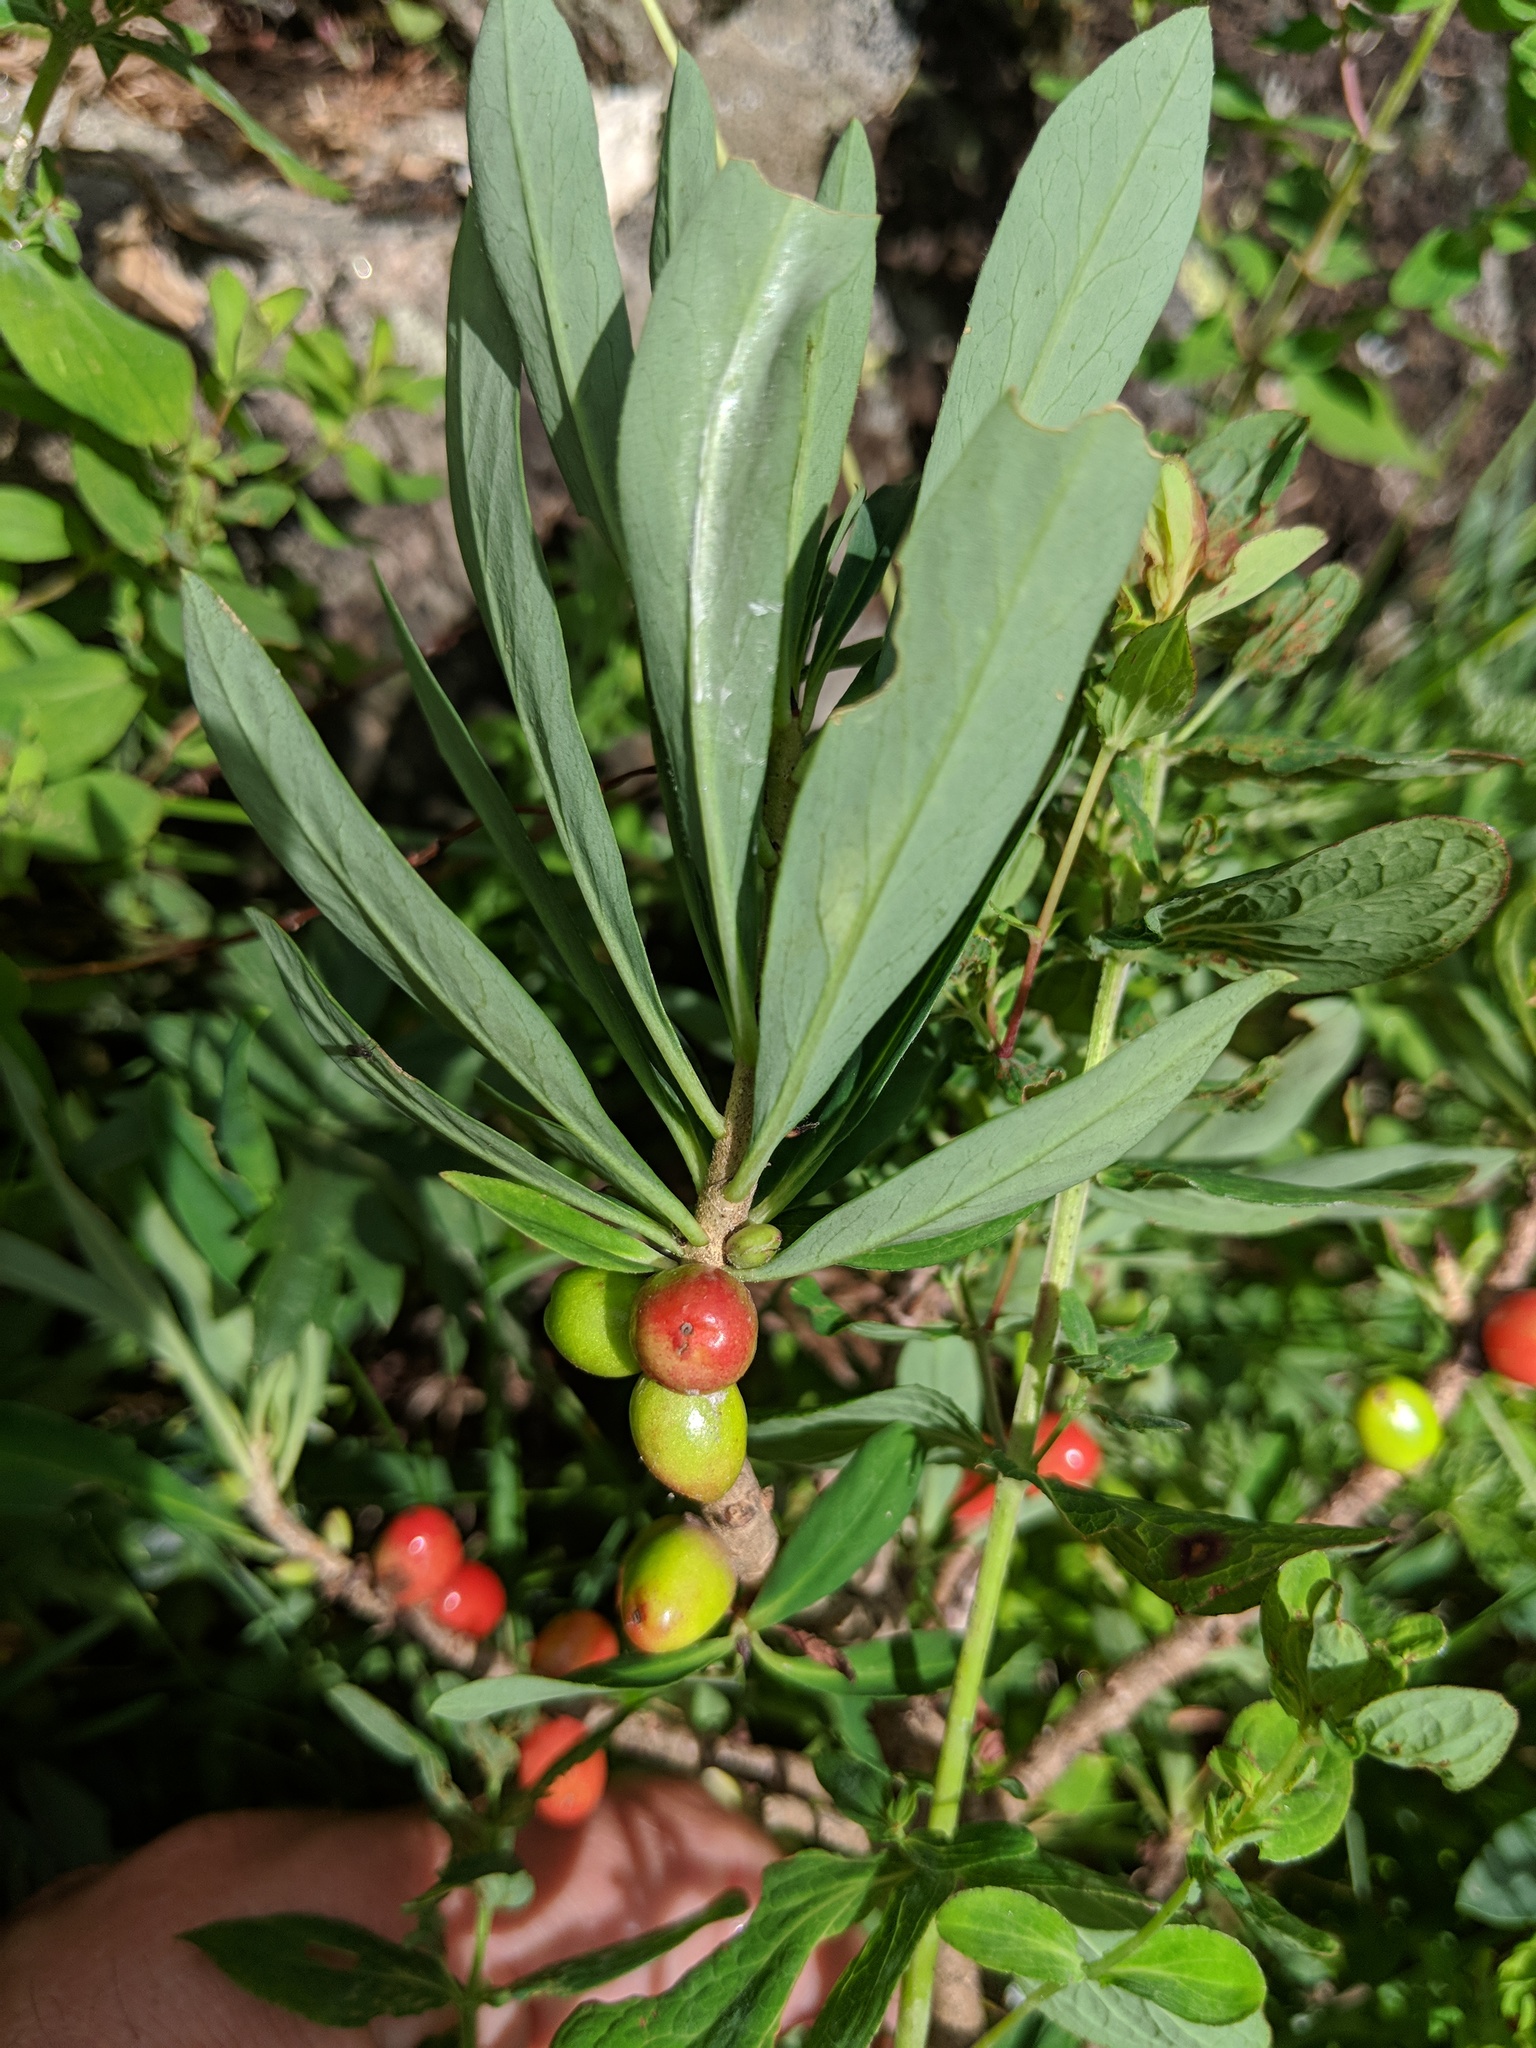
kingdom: Plantae
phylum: Tracheophyta
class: Magnoliopsida
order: Malvales
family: Thymelaeaceae
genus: Daphne
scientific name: Daphne mezereum
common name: Mezereon
